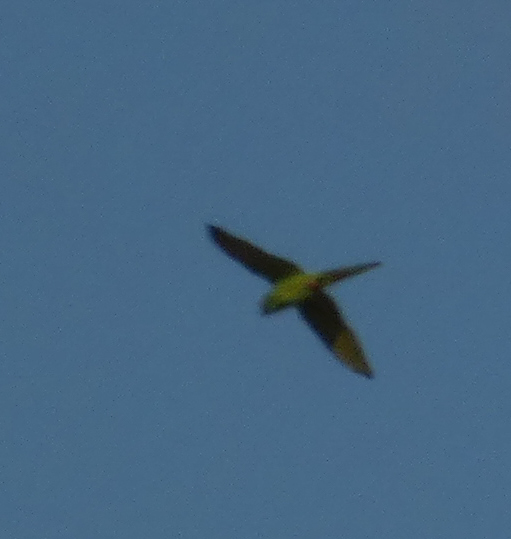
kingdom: Animalia
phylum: Chordata
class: Aves
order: Psittaciformes
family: Psittacidae
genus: Psittacara
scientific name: Psittacara
